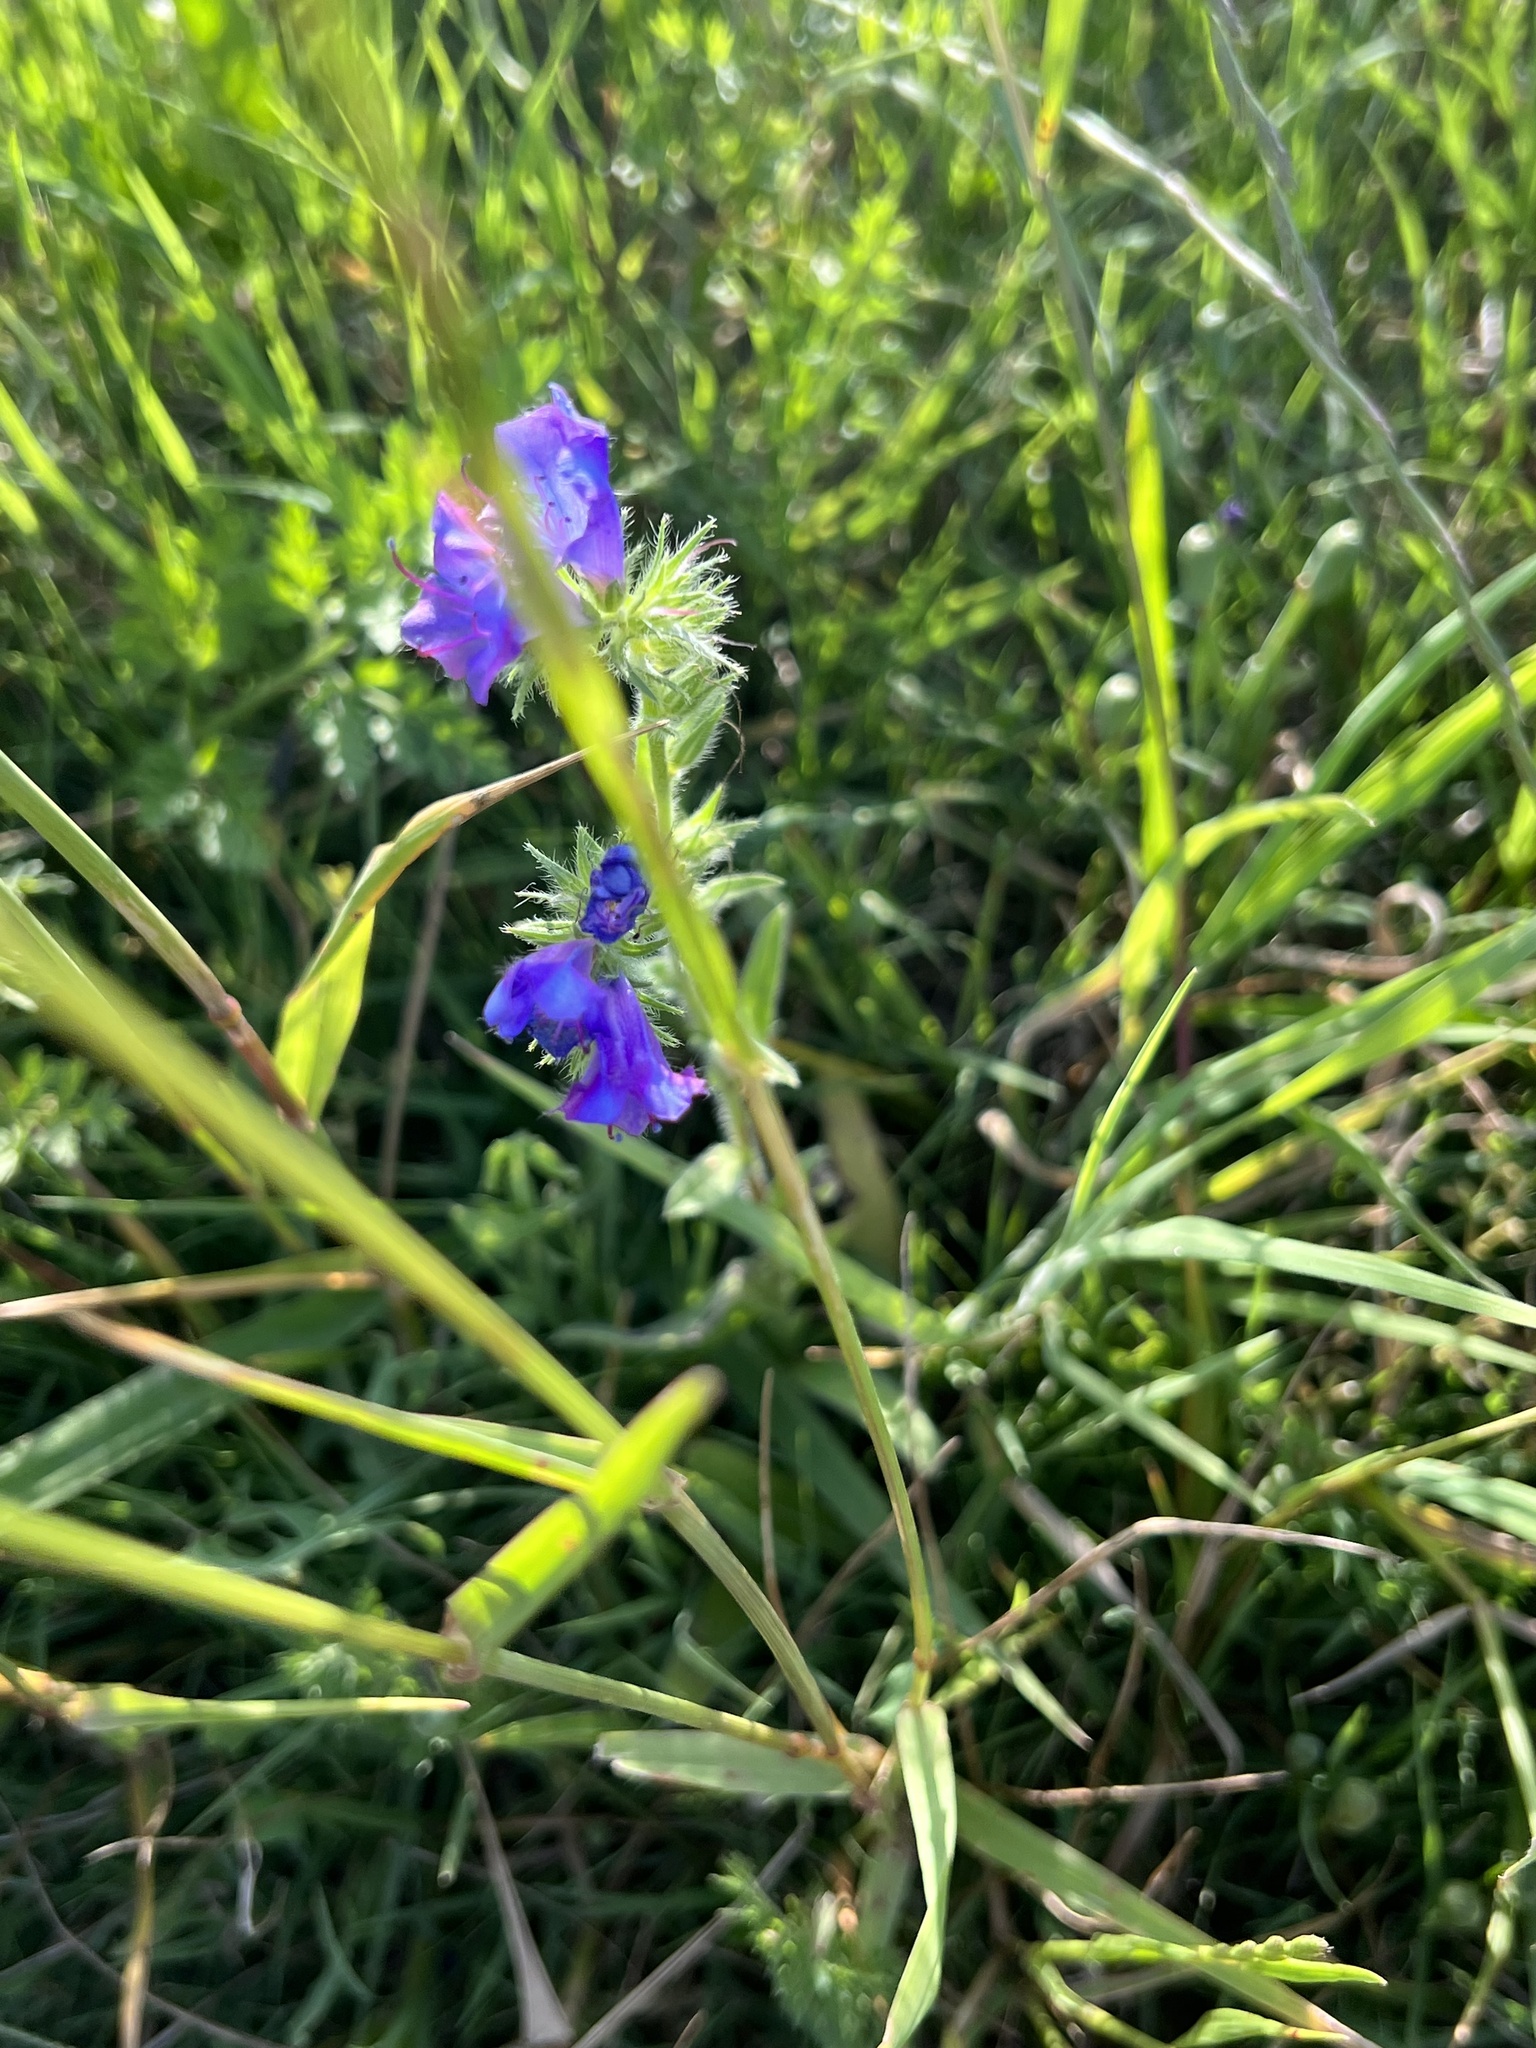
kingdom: Plantae
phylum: Tracheophyta
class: Magnoliopsida
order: Boraginales
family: Boraginaceae
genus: Echium
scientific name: Echium plantagineum
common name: Purple viper's-bugloss
